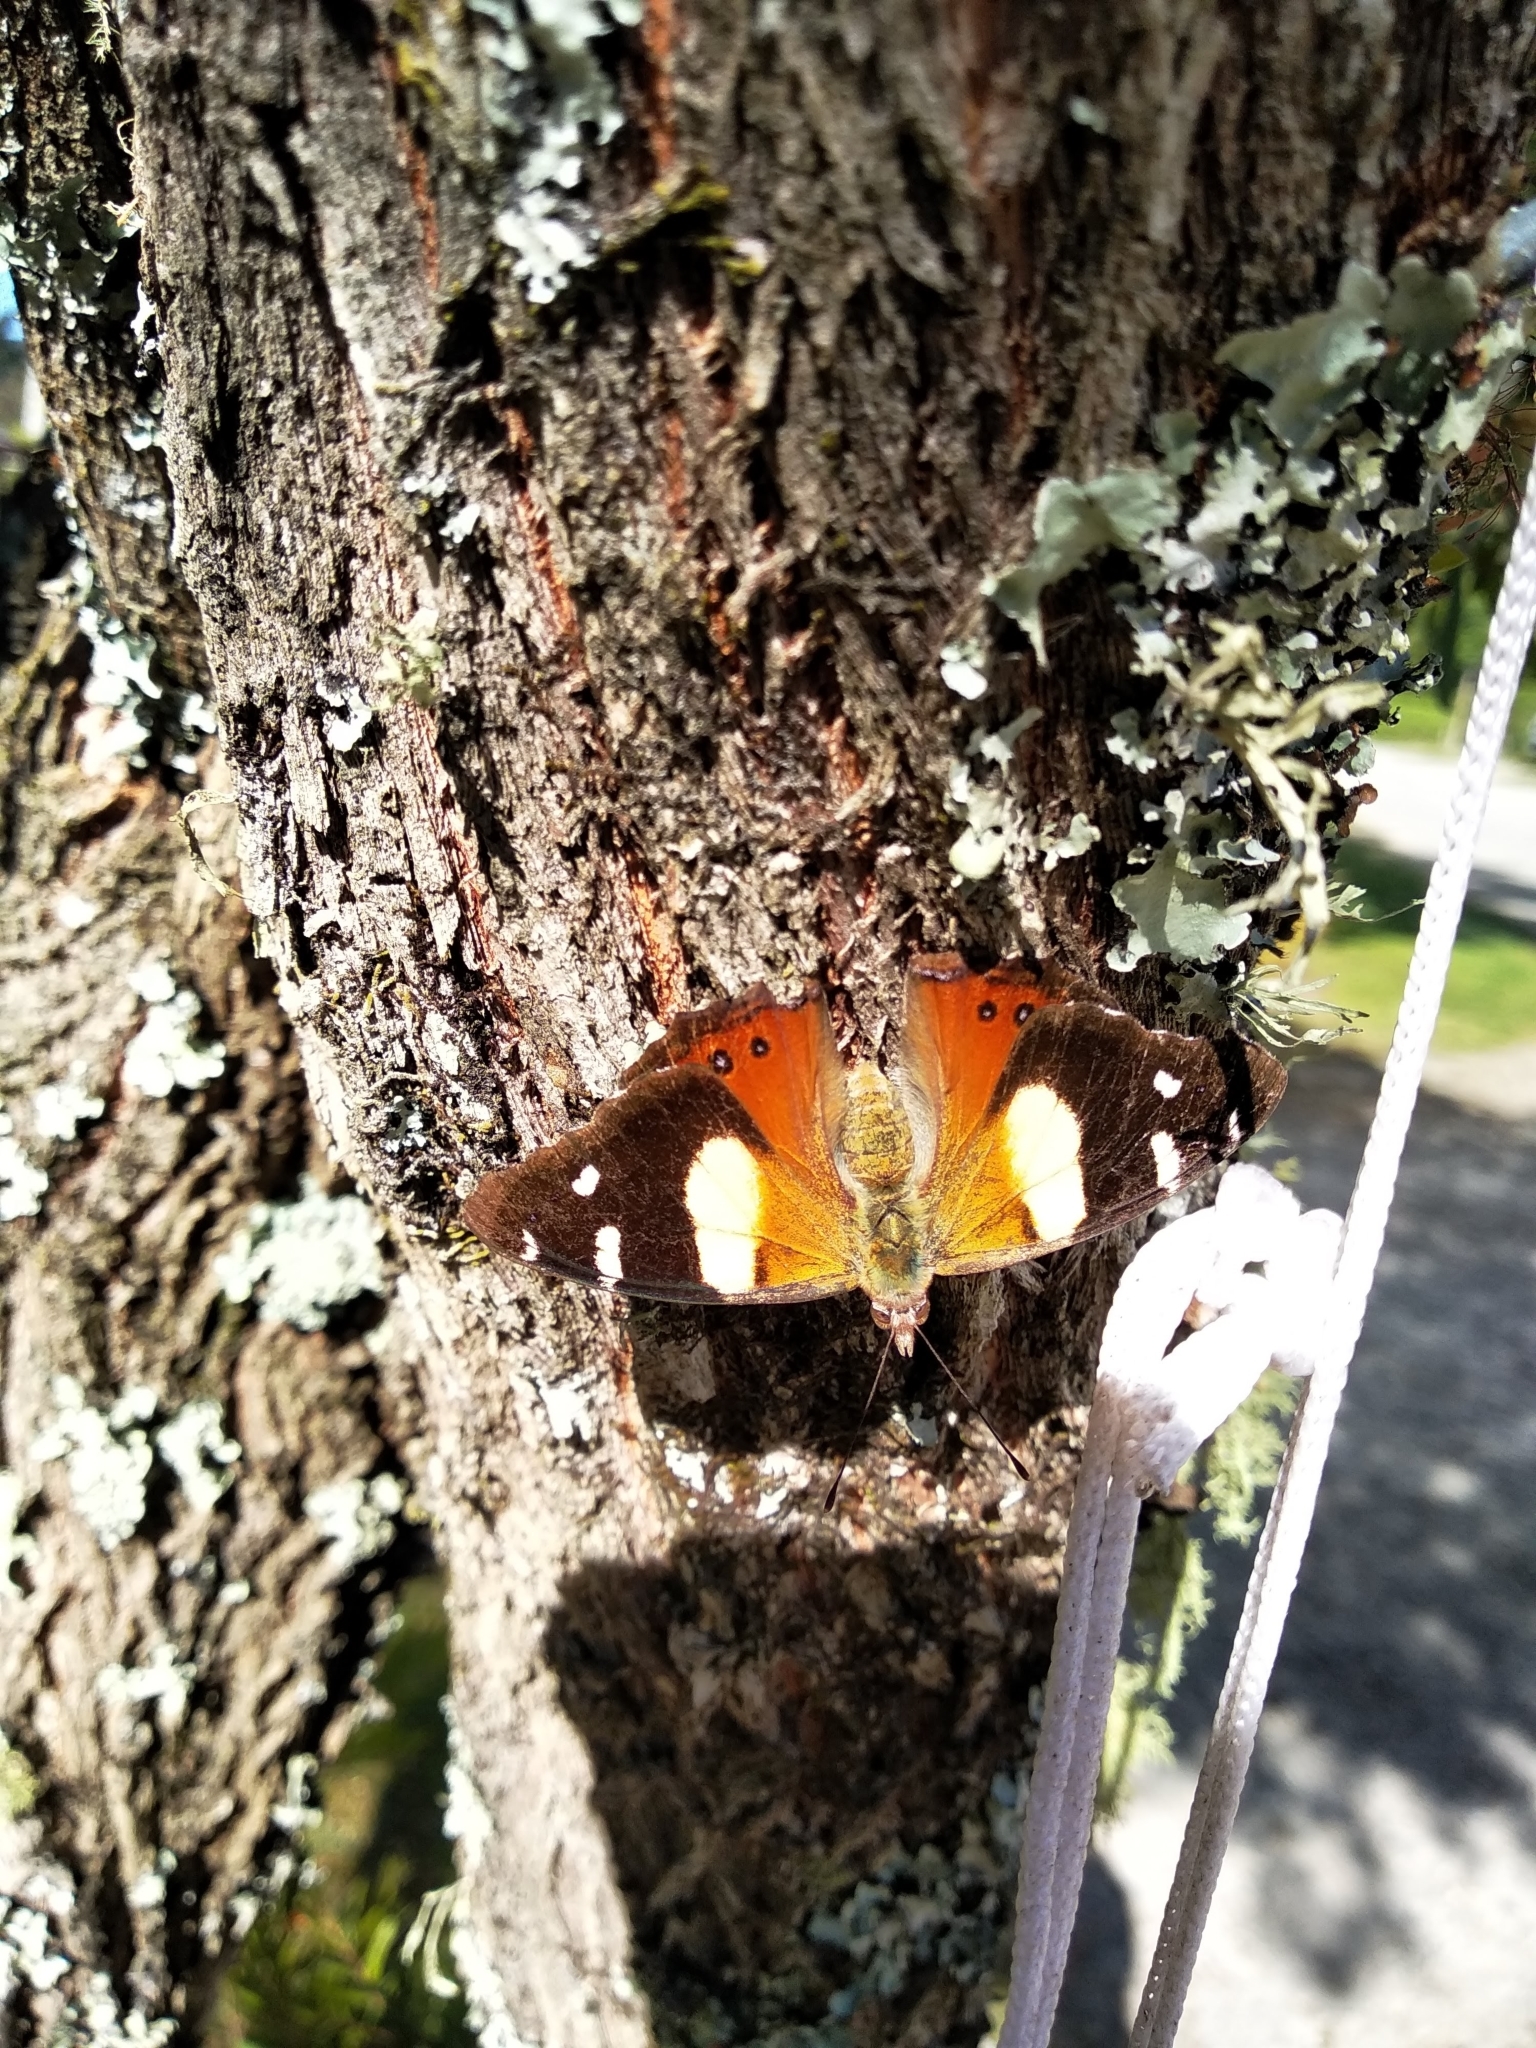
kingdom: Animalia
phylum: Arthropoda
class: Insecta
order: Lepidoptera
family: Nymphalidae
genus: Vanessa
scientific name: Vanessa itea
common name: Yellow admiral
